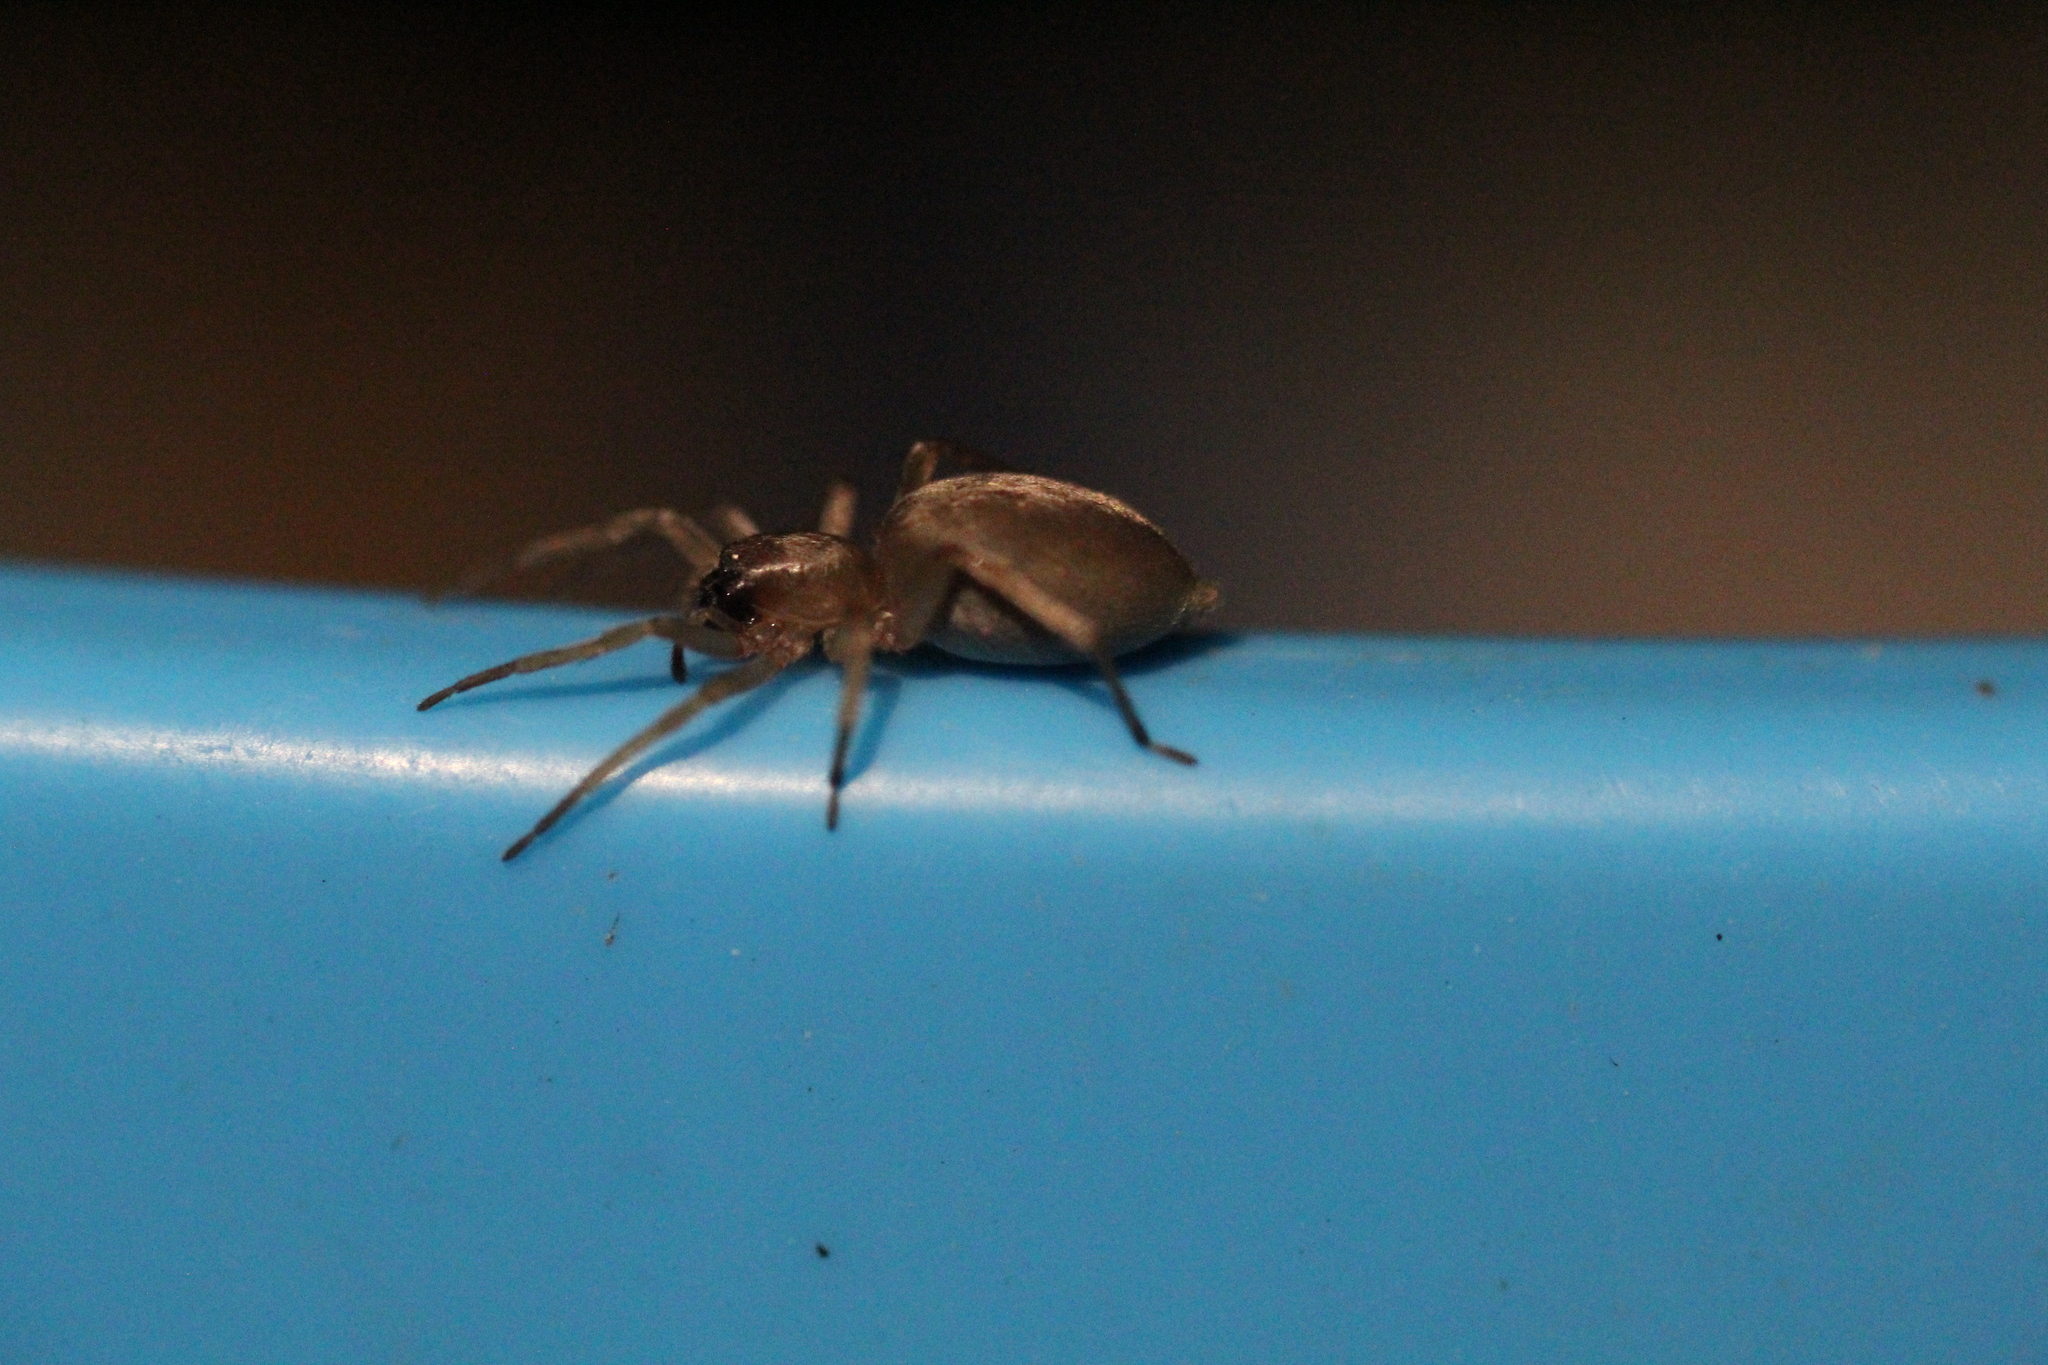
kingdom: Animalia
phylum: Arthropoda
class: Arachnida
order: Araneae
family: Clubionidae
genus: Clubiona
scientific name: Clubiona
